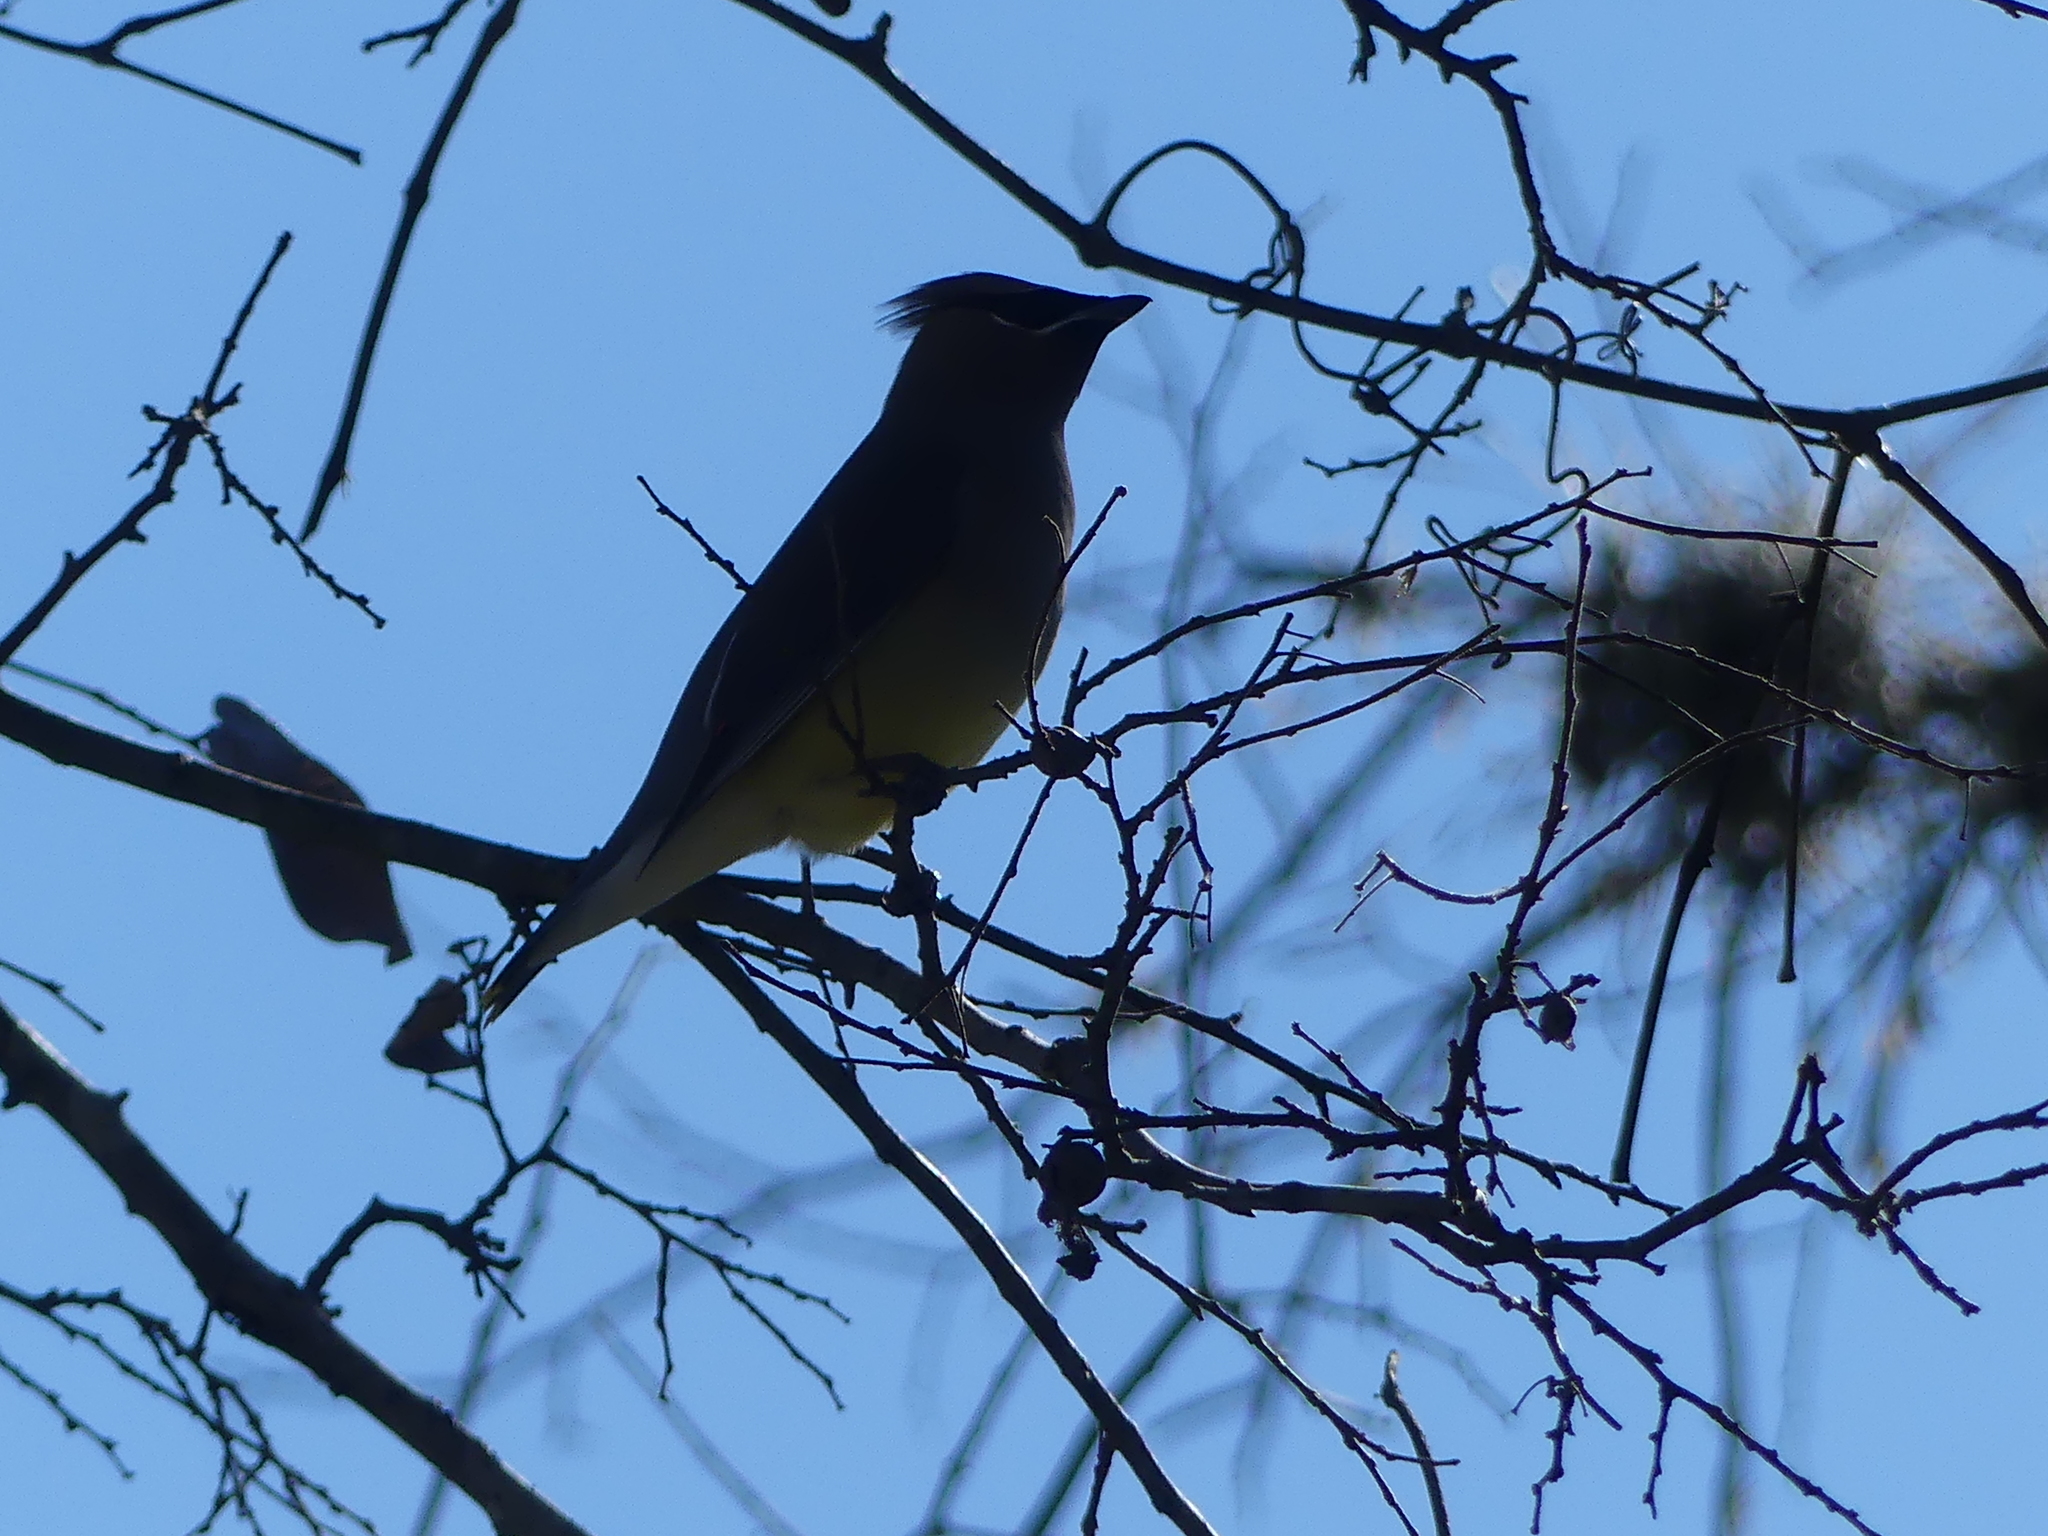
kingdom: Animalia
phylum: Chordata
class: Aves
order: Passeriformes
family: Bombycillidae
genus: Bombycilla
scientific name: Bombycilla cedrorum
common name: Cedar waxwing
